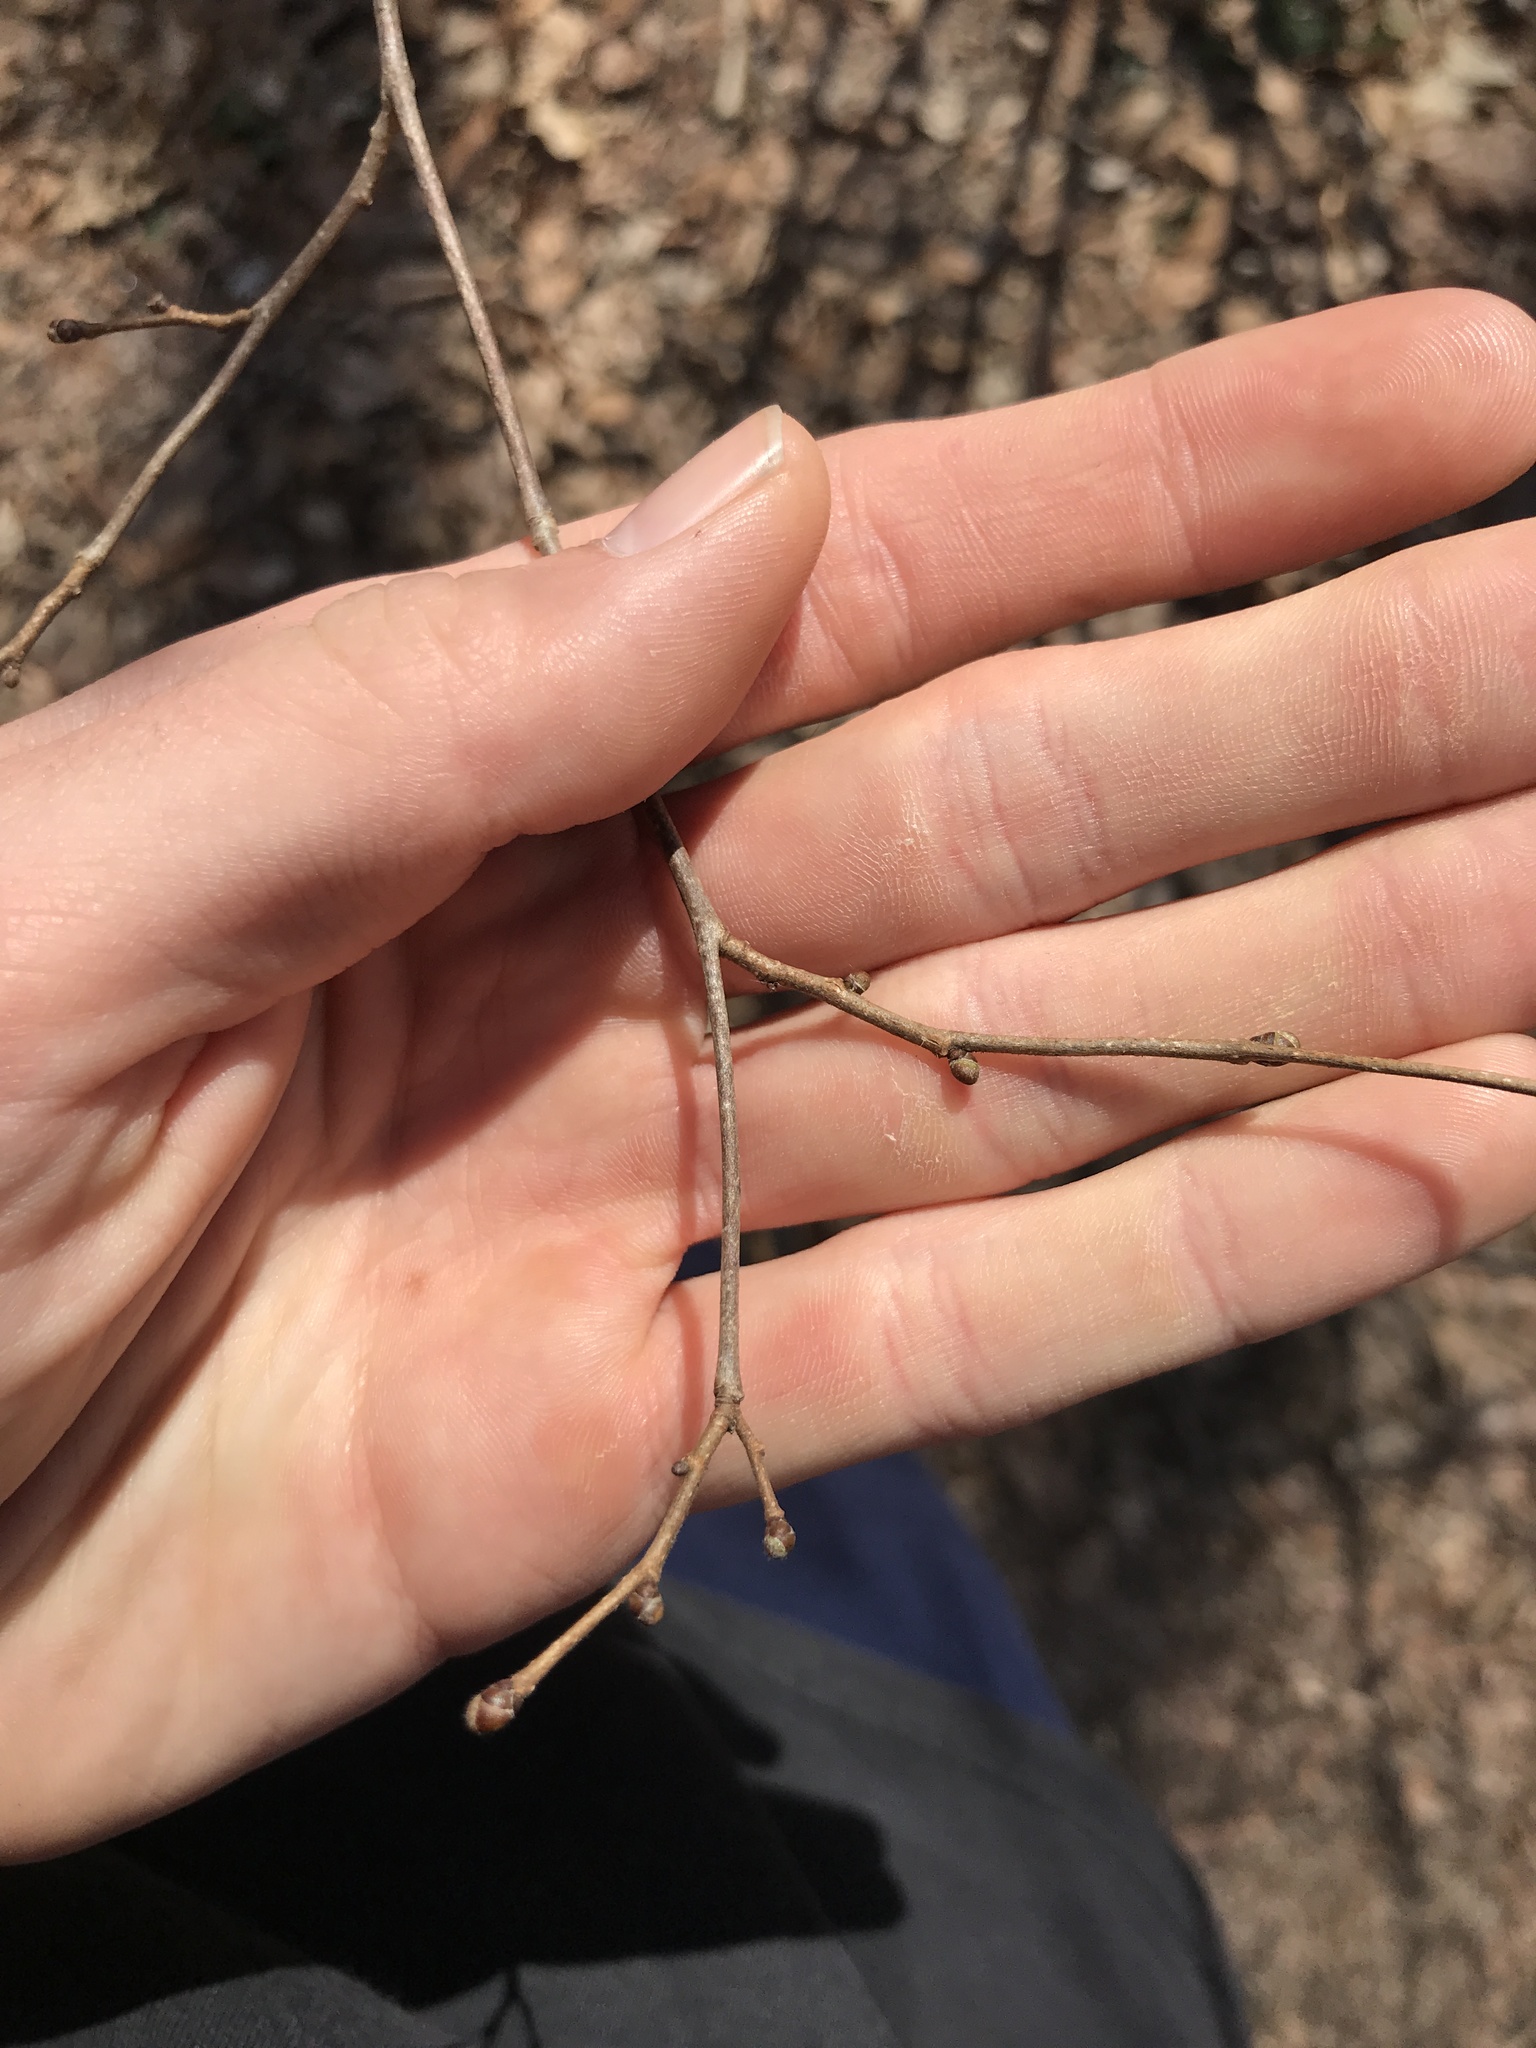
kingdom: Plantae
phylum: Tracheophyta
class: Magnoliopsida
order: Fagales
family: Betulaceae
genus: Corylus
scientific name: Corylus americana
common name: American hazel
